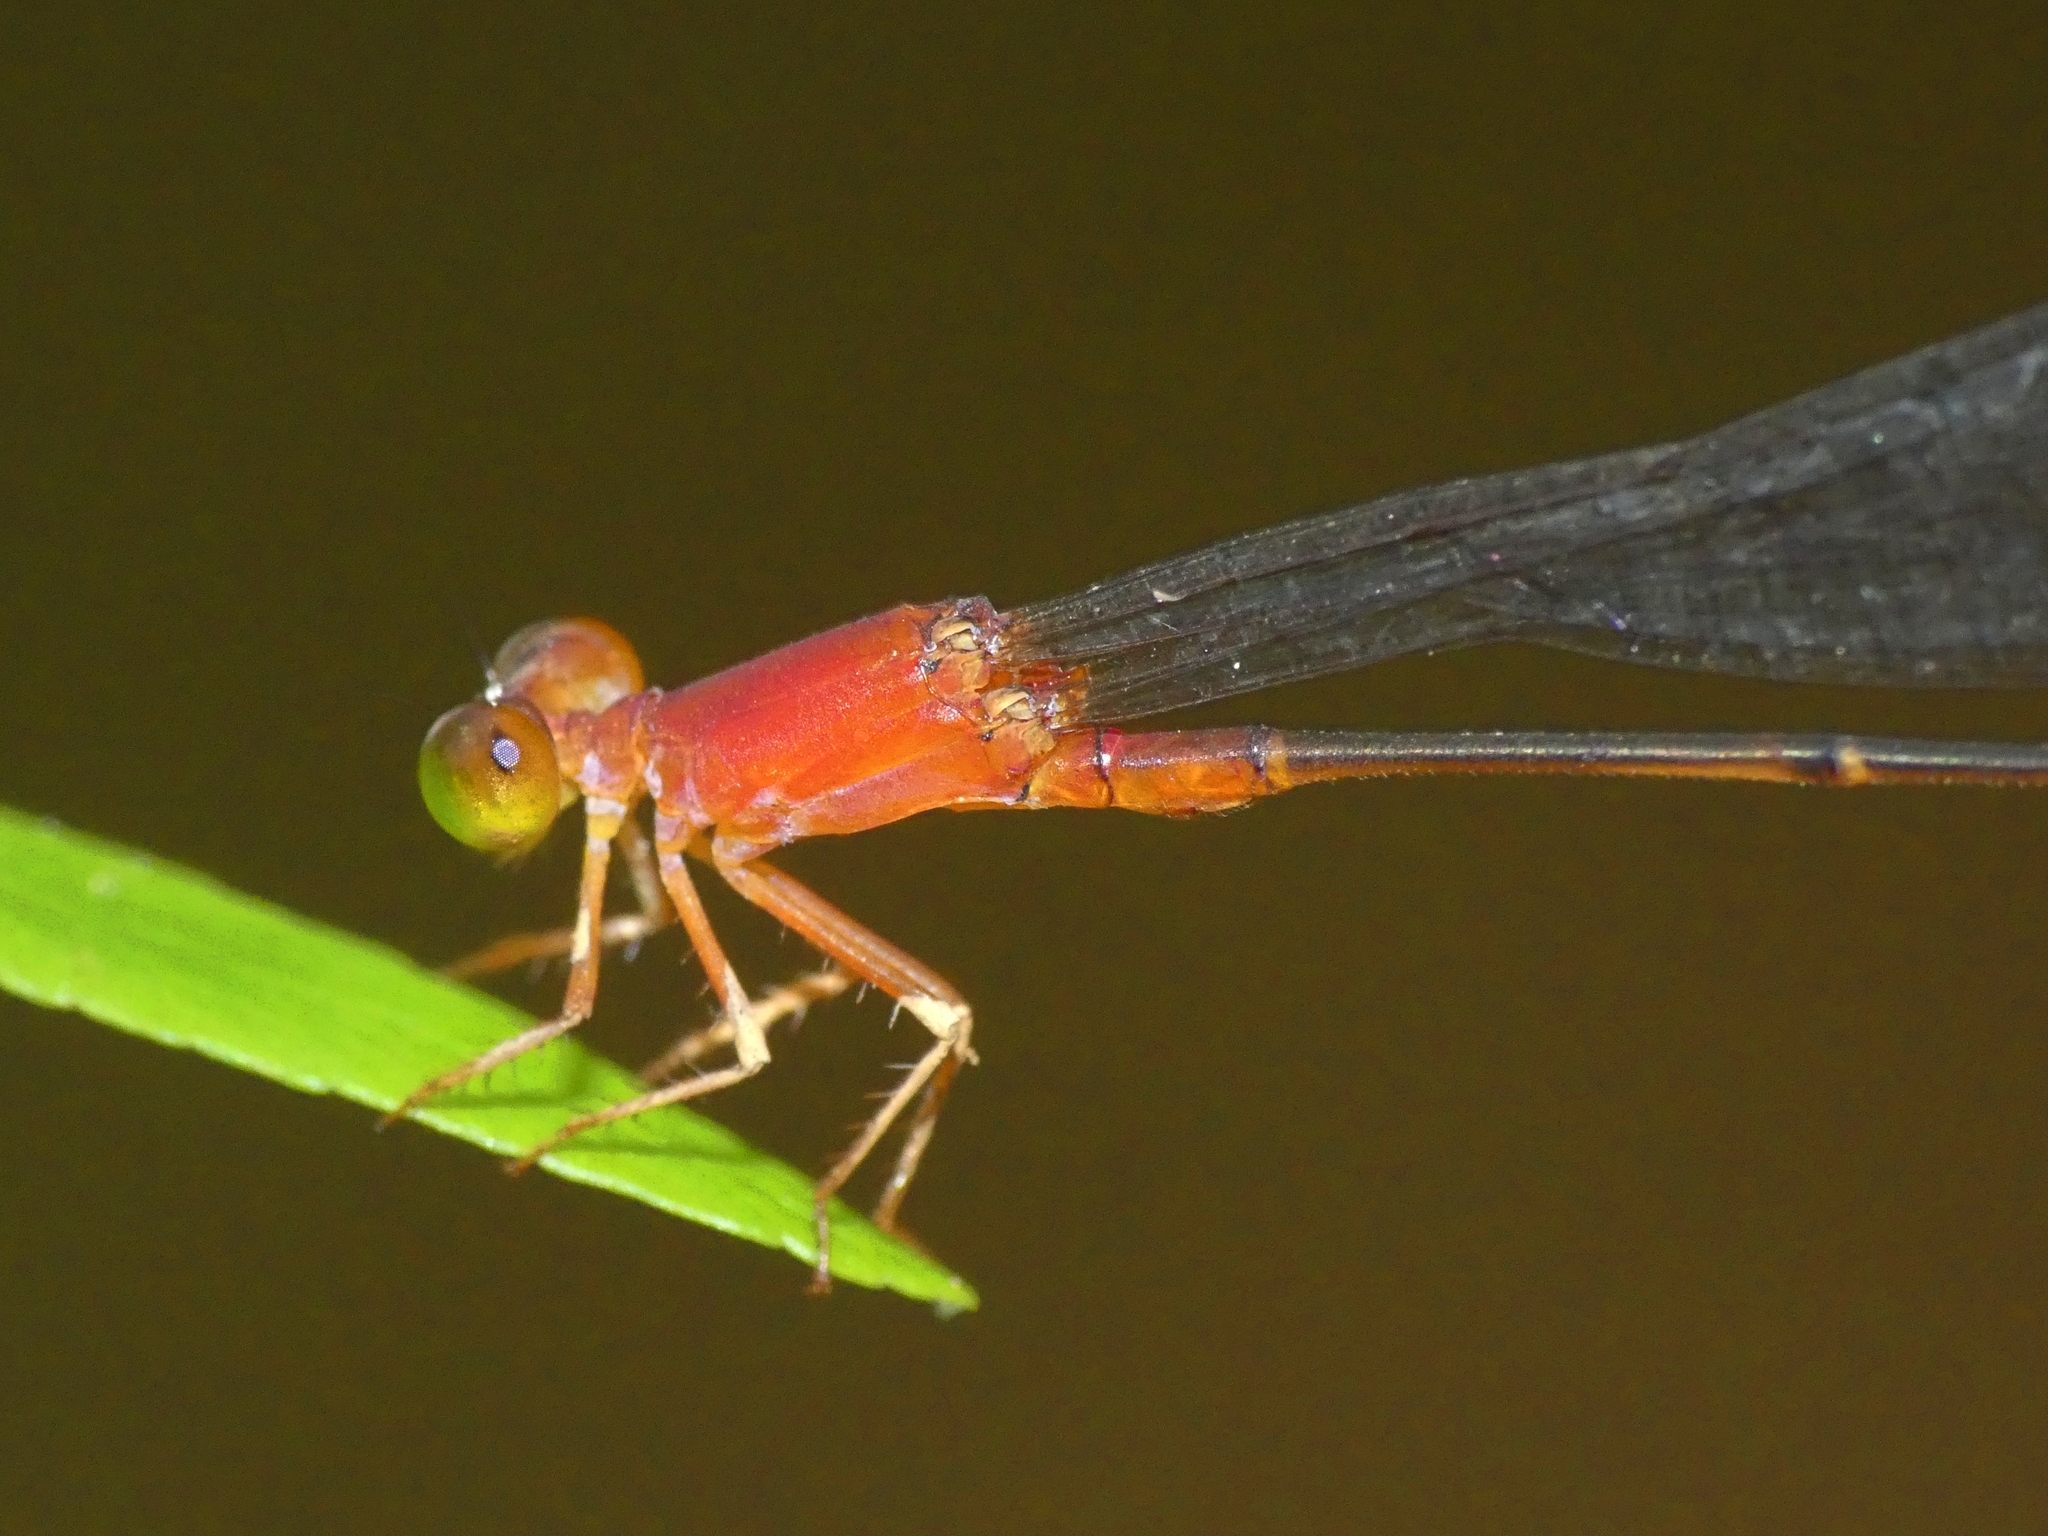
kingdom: Animalia
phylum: Arthropoda
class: Insecta
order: Odonata
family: Coenagrionidae
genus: Teinobasis
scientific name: Teinobasis rufithorax
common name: Red-breasted longtail
